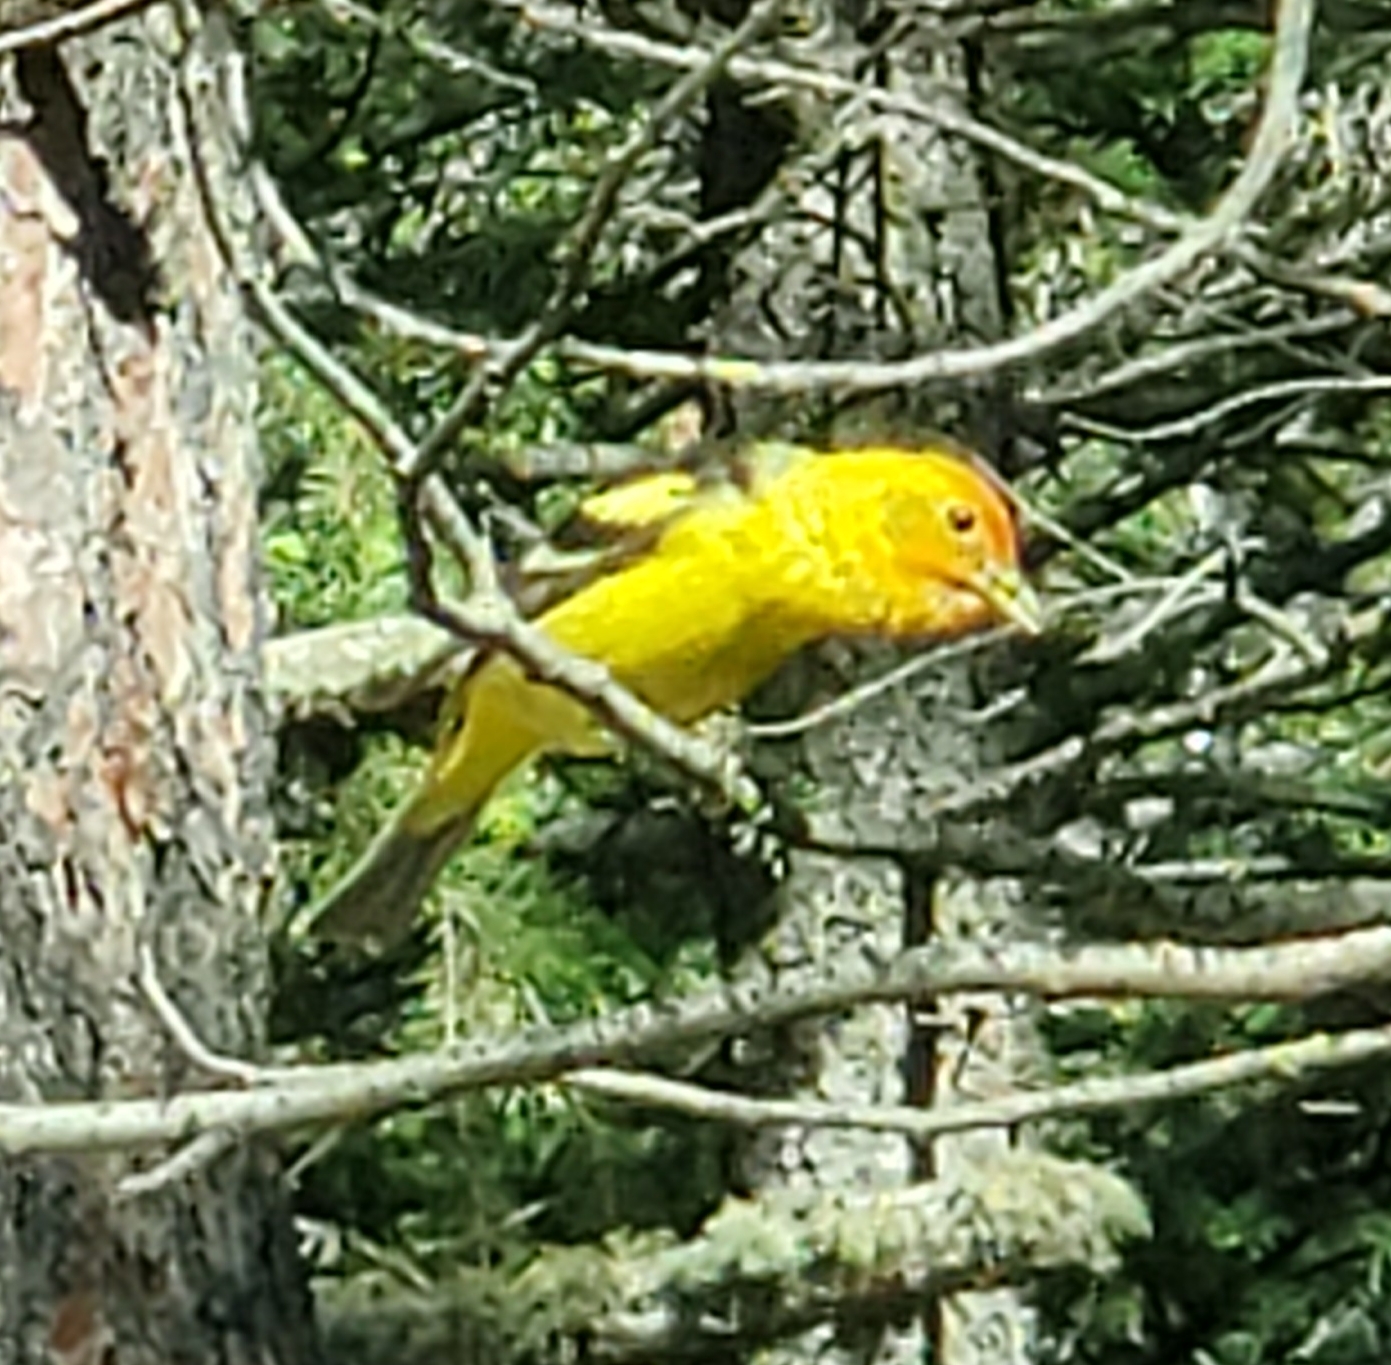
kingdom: Animalia
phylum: Chordata
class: Aves
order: Passeriformes
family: Cardinalidae
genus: Piranga
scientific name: Piranga ludoviciana
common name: Western tanager
